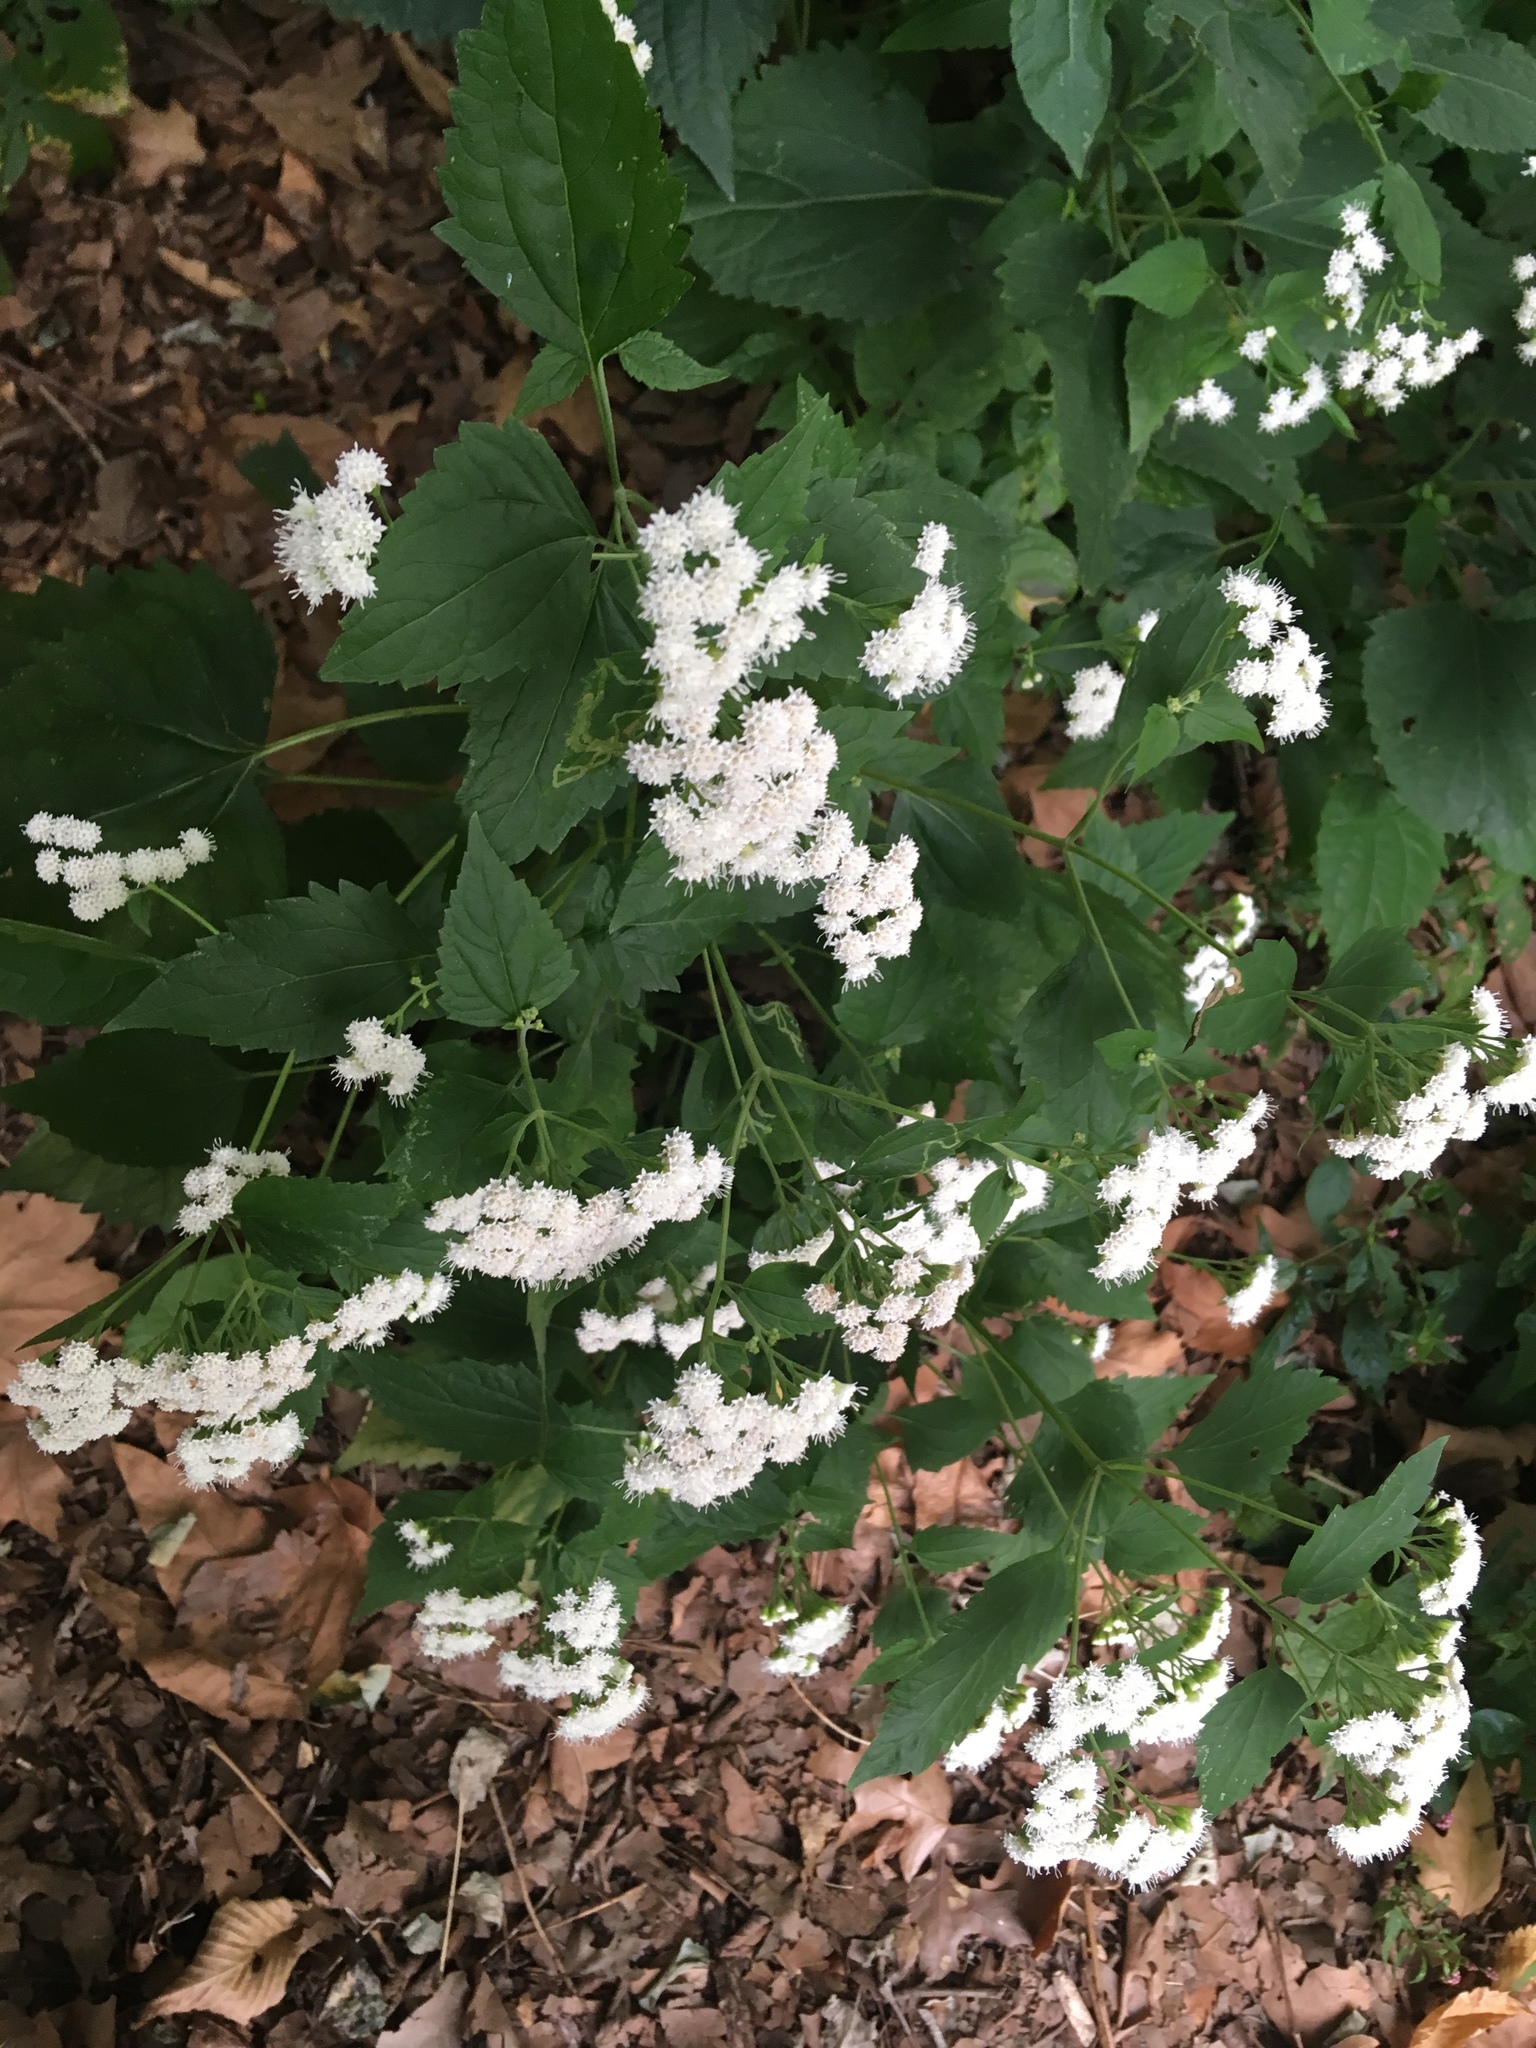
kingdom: Plantae
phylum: Tracheophyta
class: Magnoliopsida
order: Asterales
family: Asteraceae
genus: Ageratina
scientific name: Ageratina altissima
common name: White snakeroot
